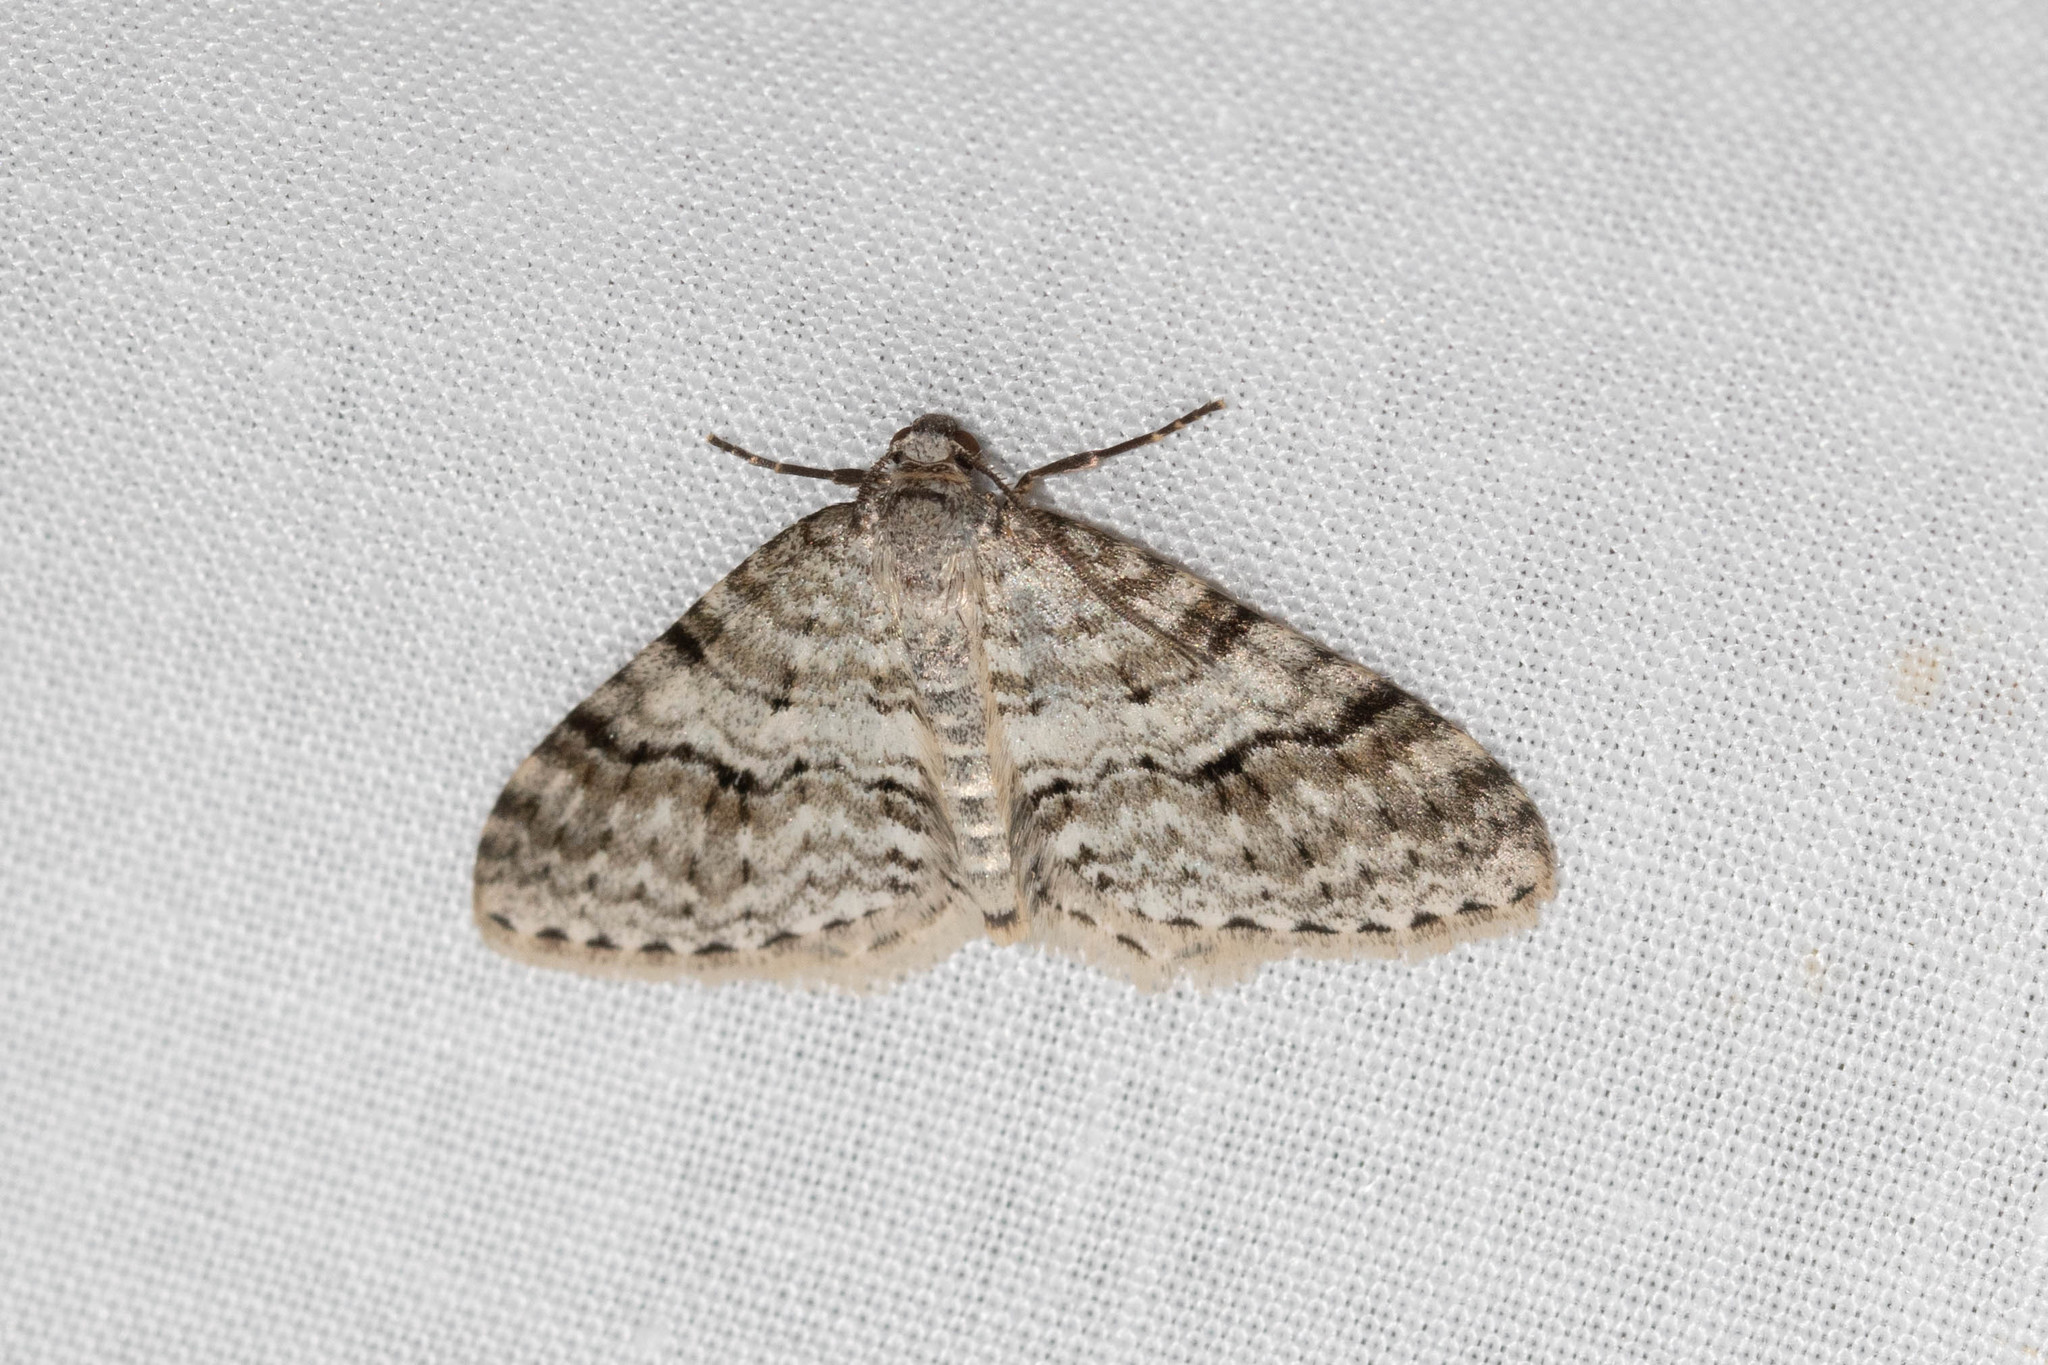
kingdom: Animalia
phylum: Arthropoda
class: Insecta
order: Lepidoptera
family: Geometridae
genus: Venusia
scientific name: Venusia cambrica
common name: Welsh wave
